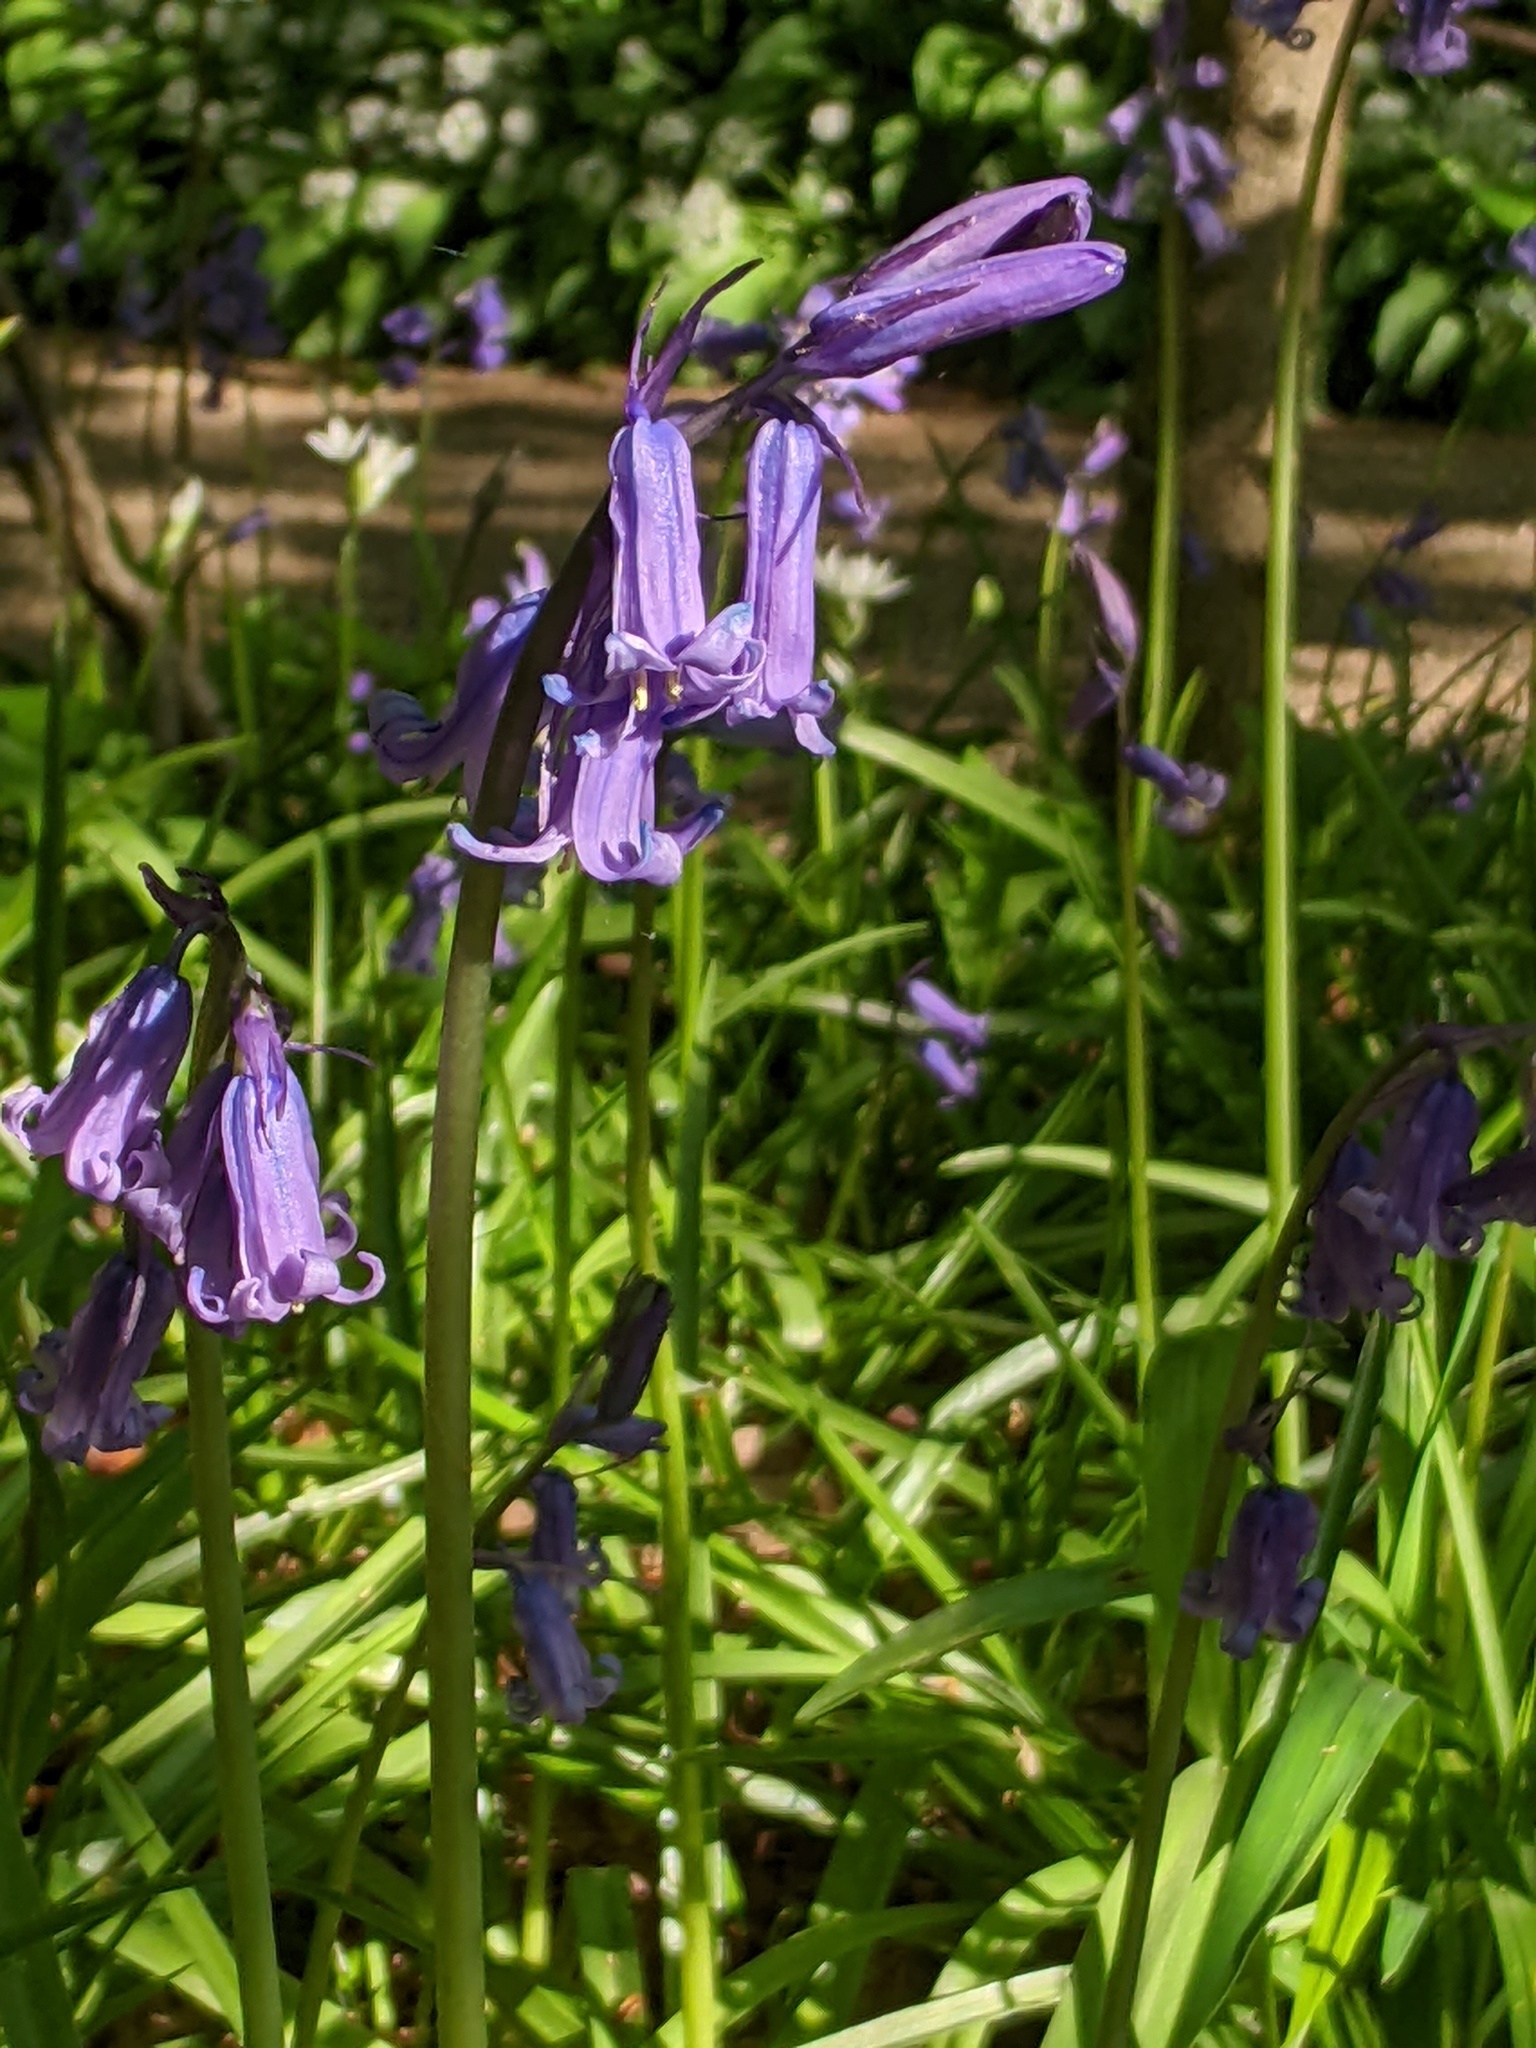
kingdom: Plantae
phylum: Tracheophyta
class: Liliopsida
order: Asparagales
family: Asparagaceae
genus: Hyacinthoides
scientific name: Hyacinthoides non-scripta
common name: Bluebell
